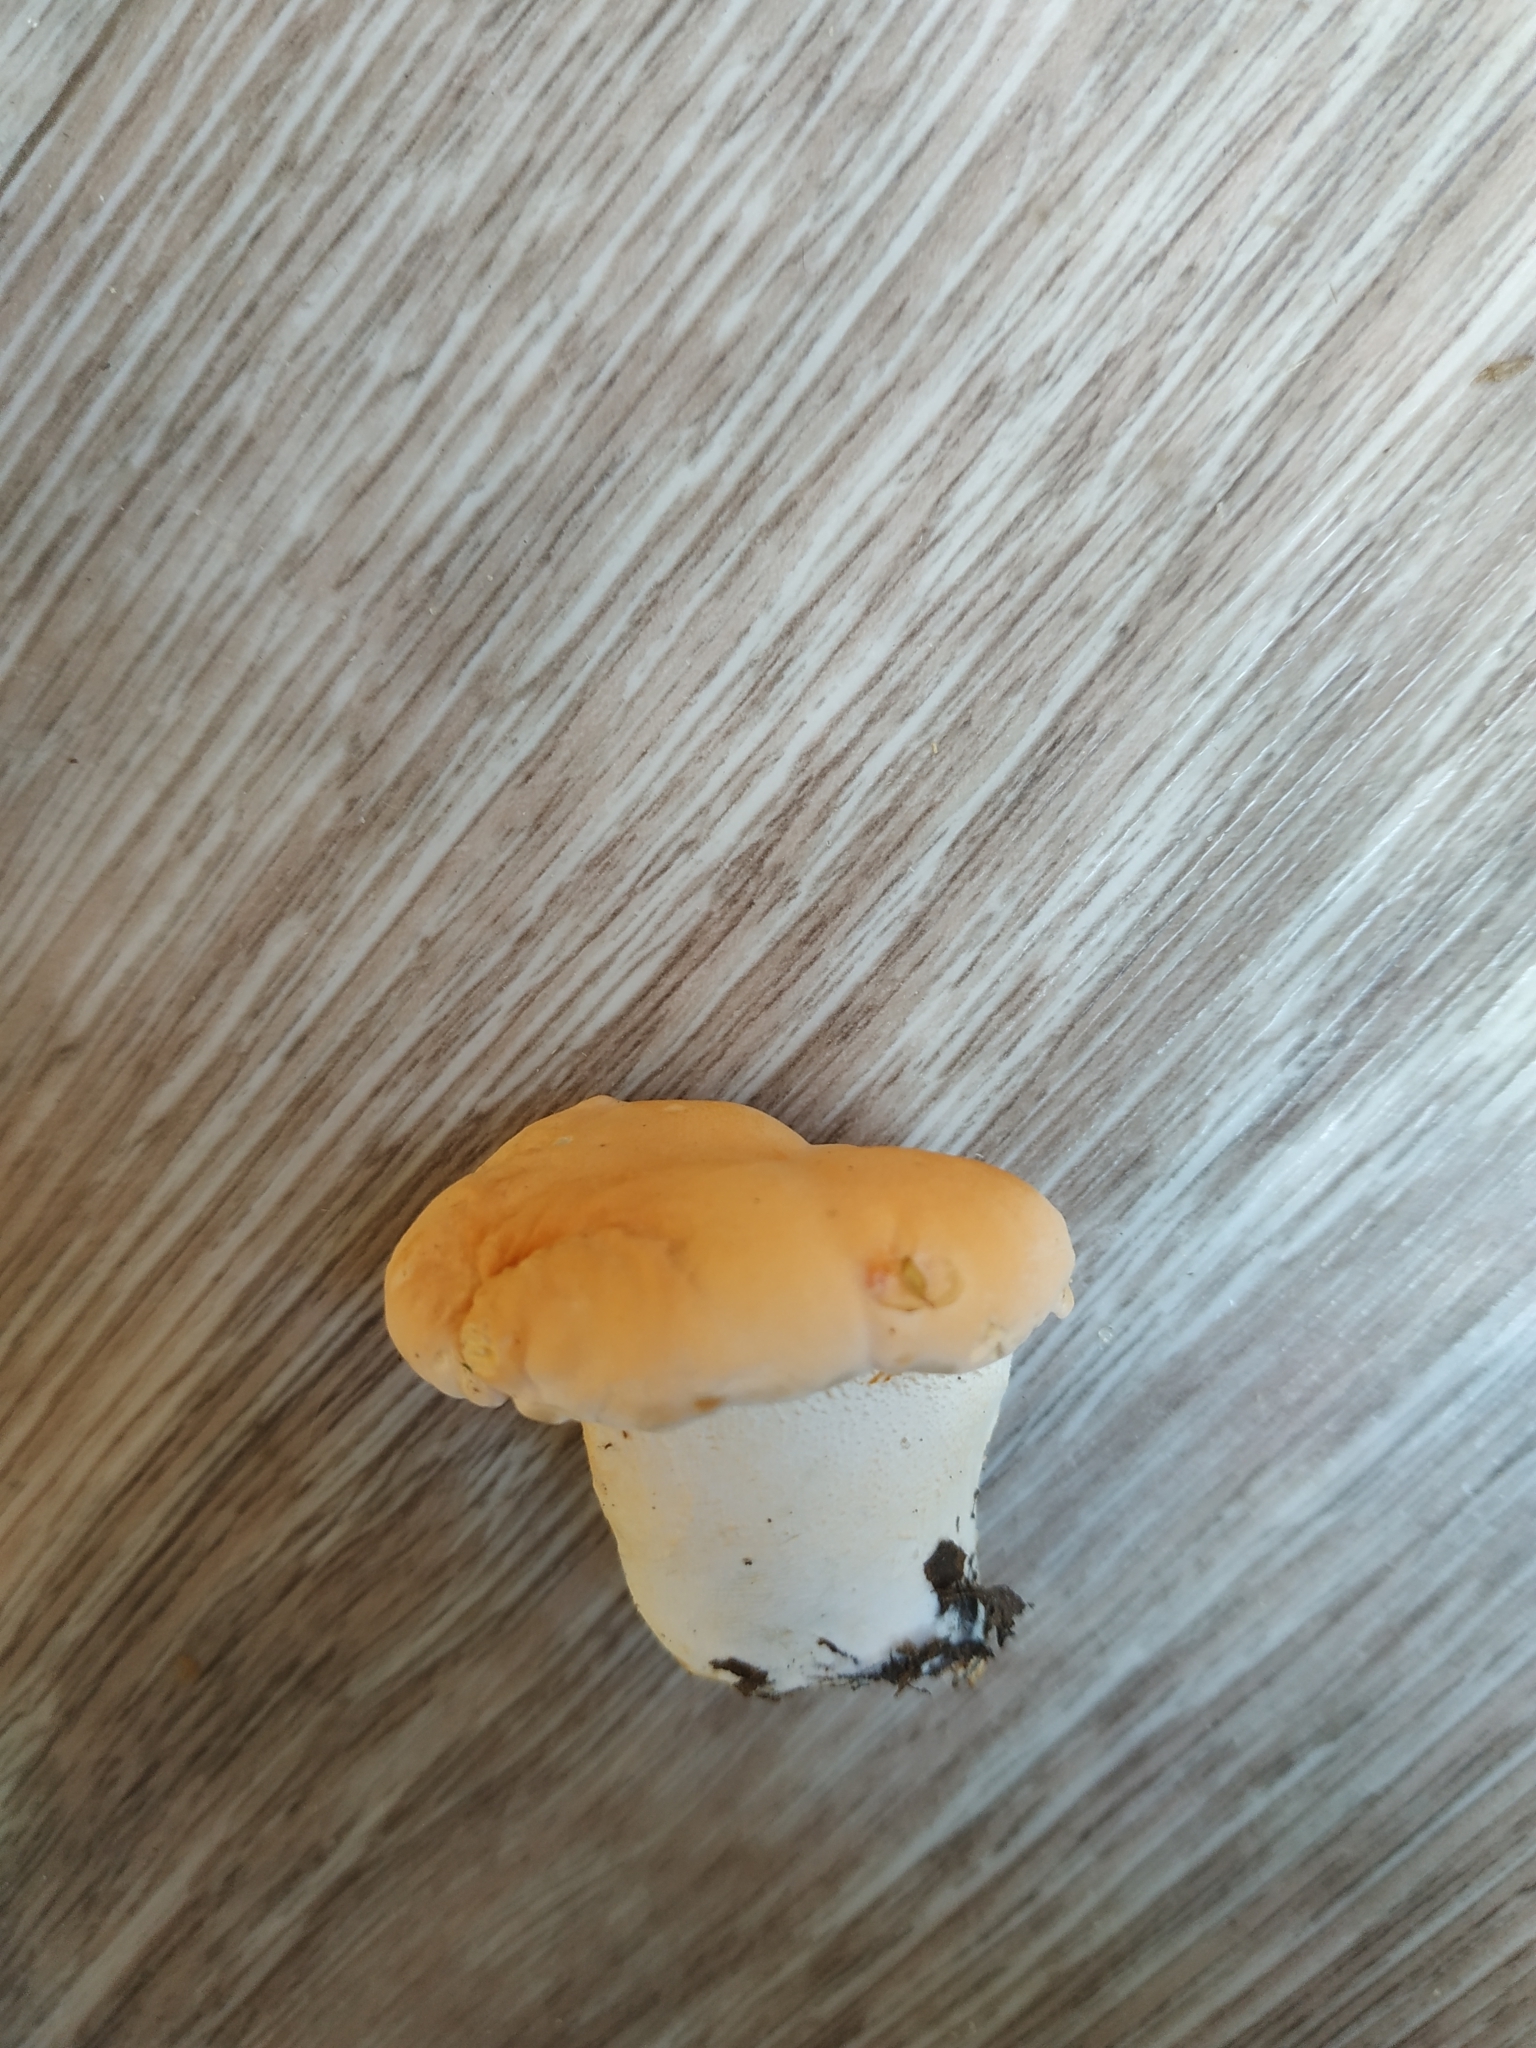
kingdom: Fungi
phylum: Basidiomycota
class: Agaricomycetes
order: Cantharellales
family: Hydnaceae
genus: Hydnum
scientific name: Hydnum repandum
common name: Wood hedgehog
